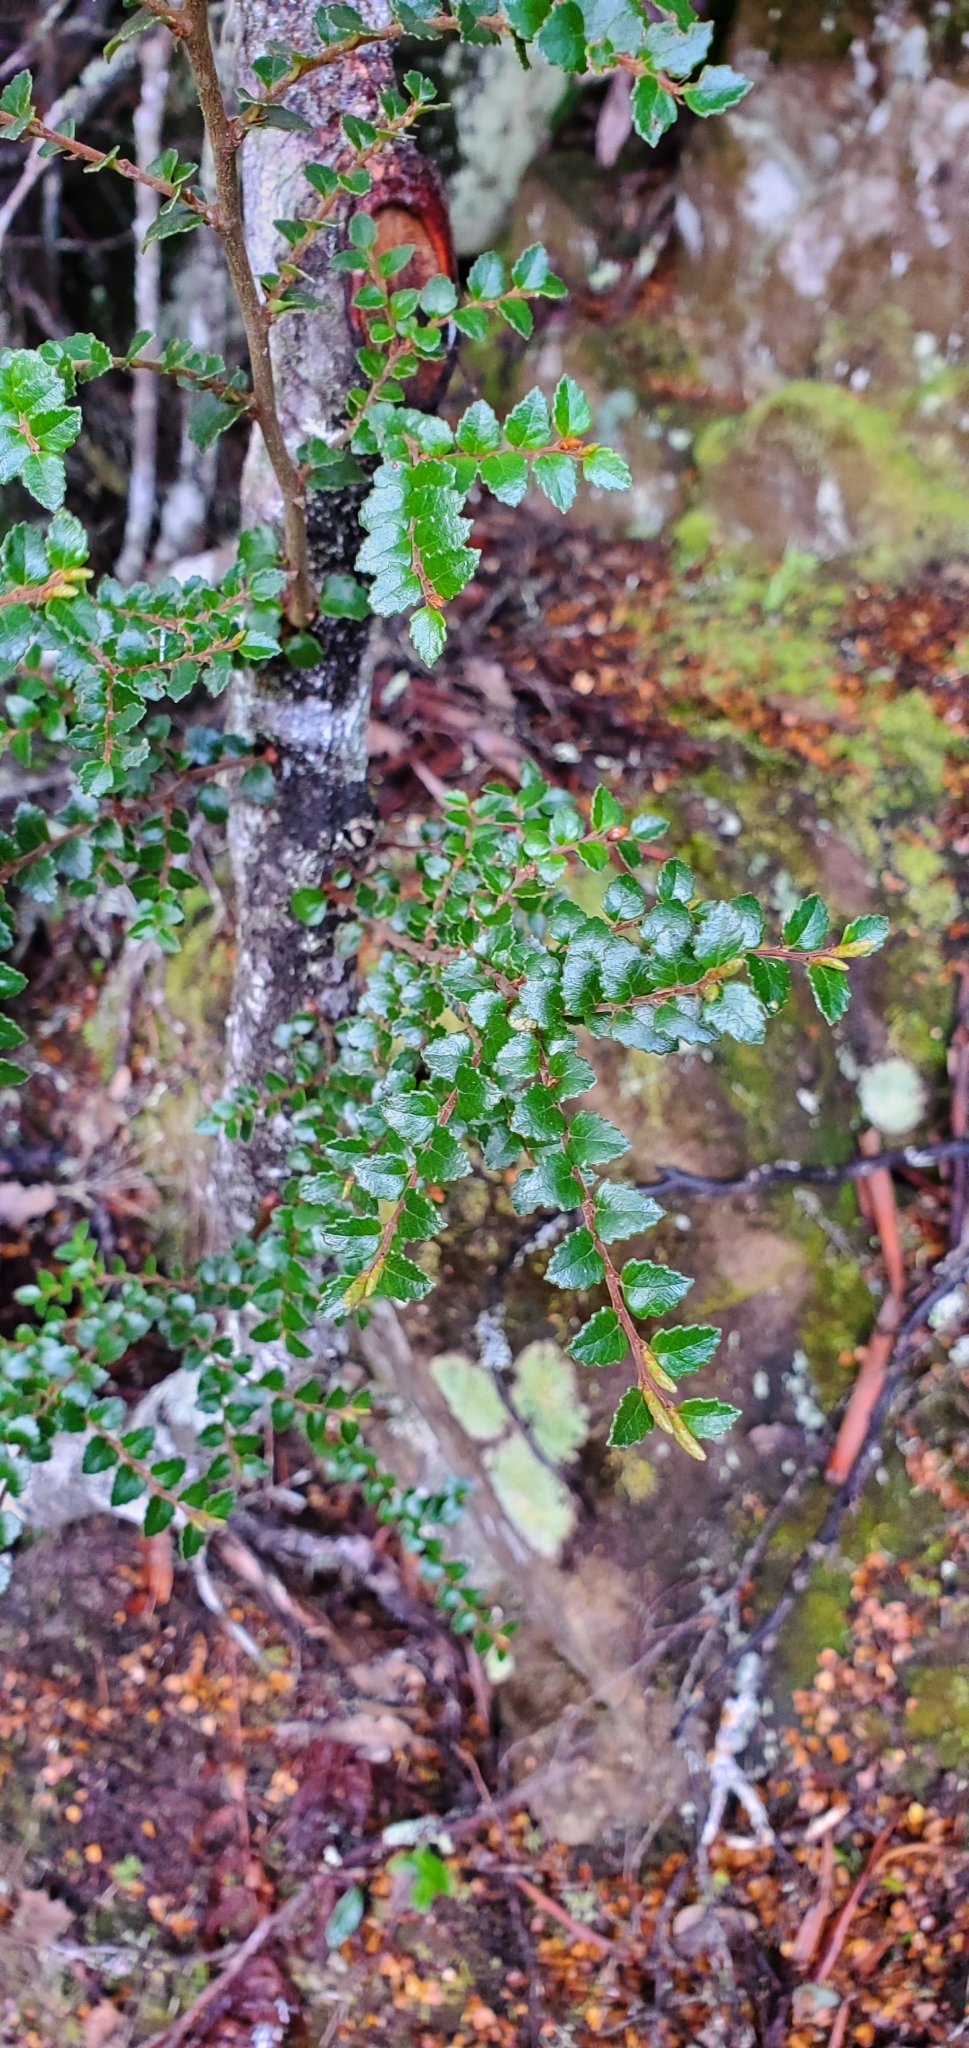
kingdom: Plantae
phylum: Tracheophyta
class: Magnoliopsida
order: Fagales
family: Nothofagaceae
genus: Nothofagus
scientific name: Nothofagus cunninghamii
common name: Myrtle beech
